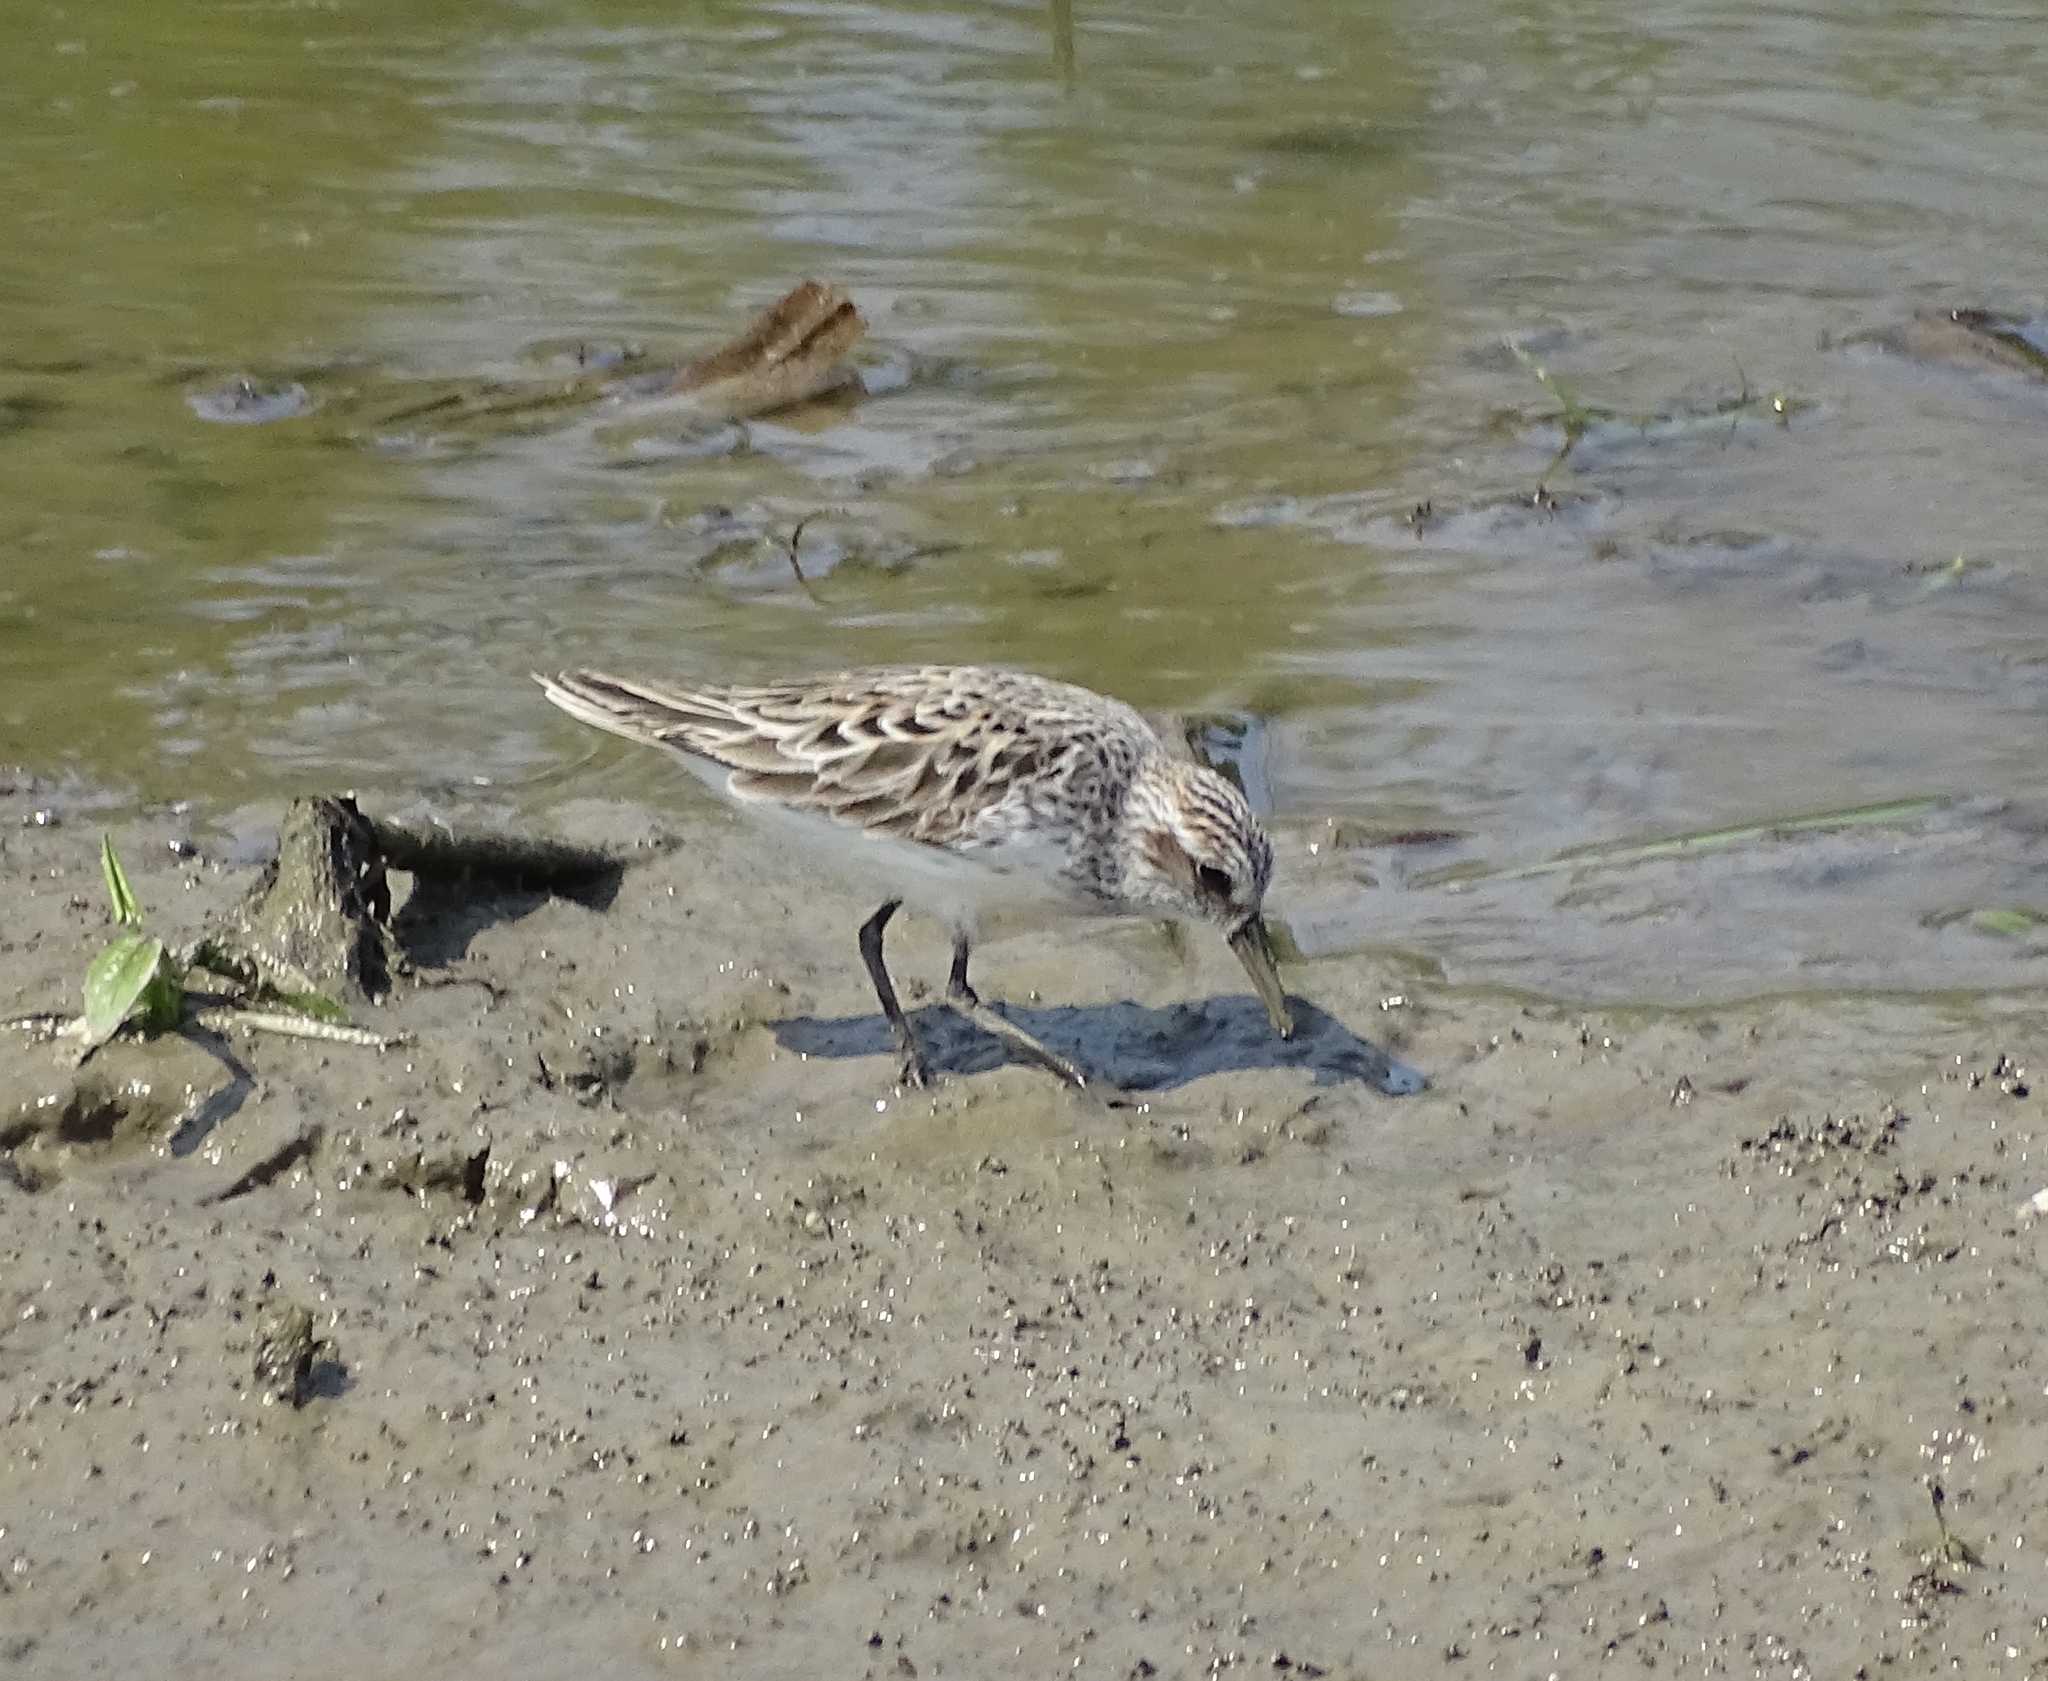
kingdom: Animalia
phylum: Chordata
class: Aves
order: Charadriiformes
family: Scolopacidae
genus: Calidris
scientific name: Calidris pusilla
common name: Semipalmated sandpiper
